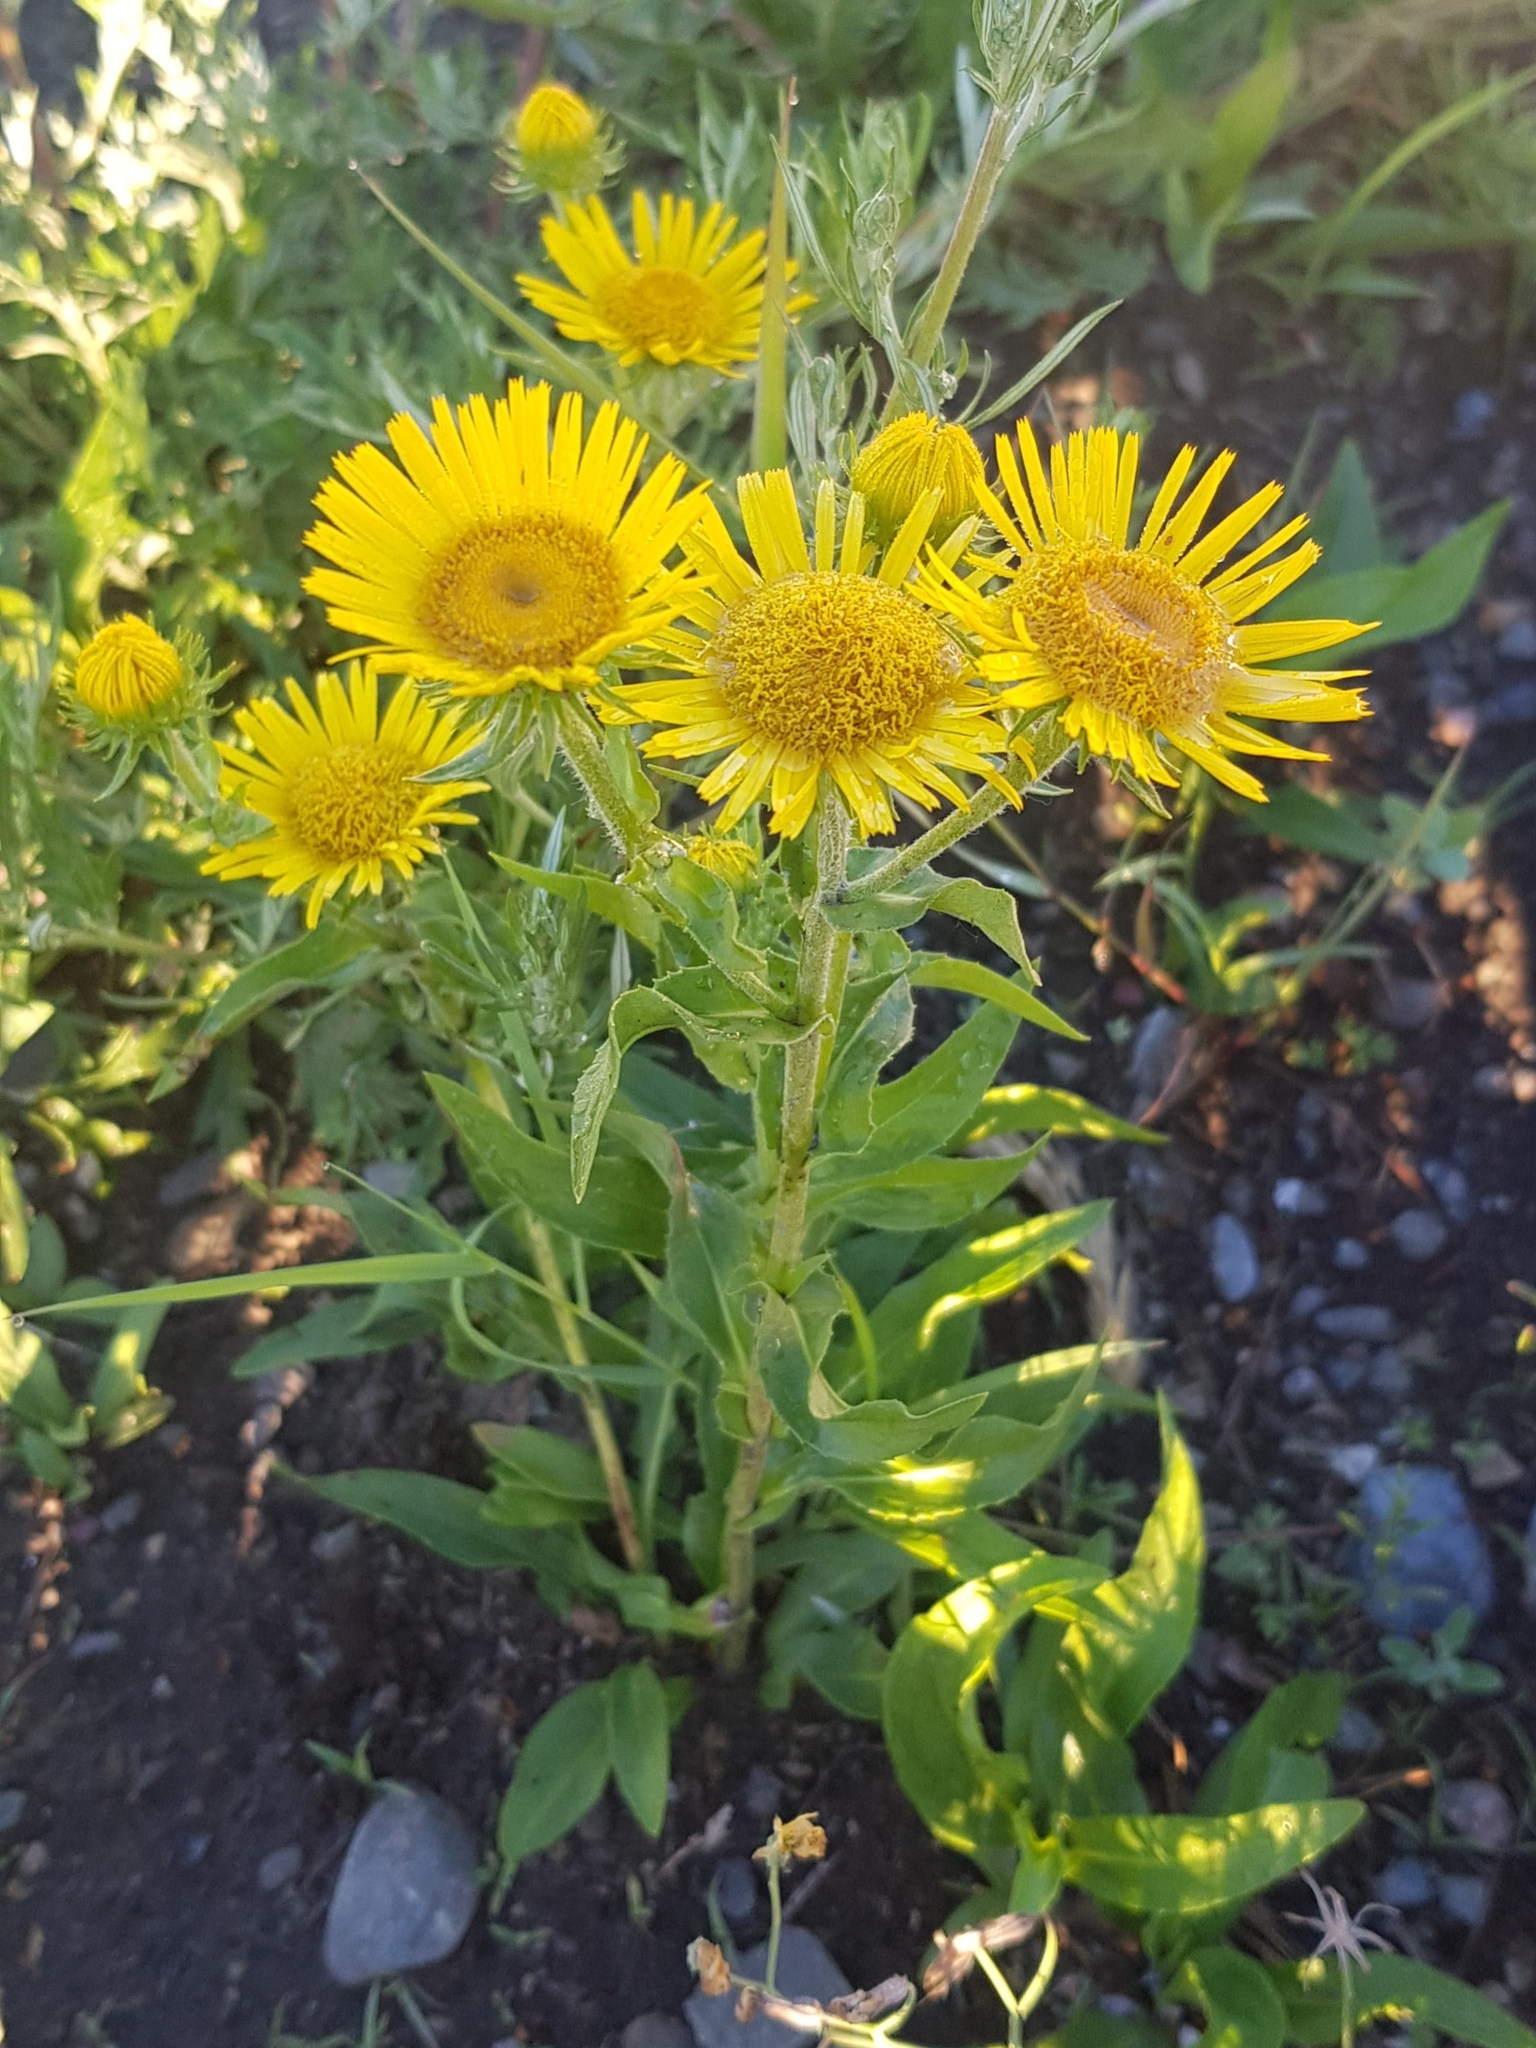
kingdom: Plantae
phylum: Tracheophyta
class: Magnoliopsida
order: Asterales
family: Asteraceae
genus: Pentanema
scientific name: Pentanema britannicum
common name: British elecampane
